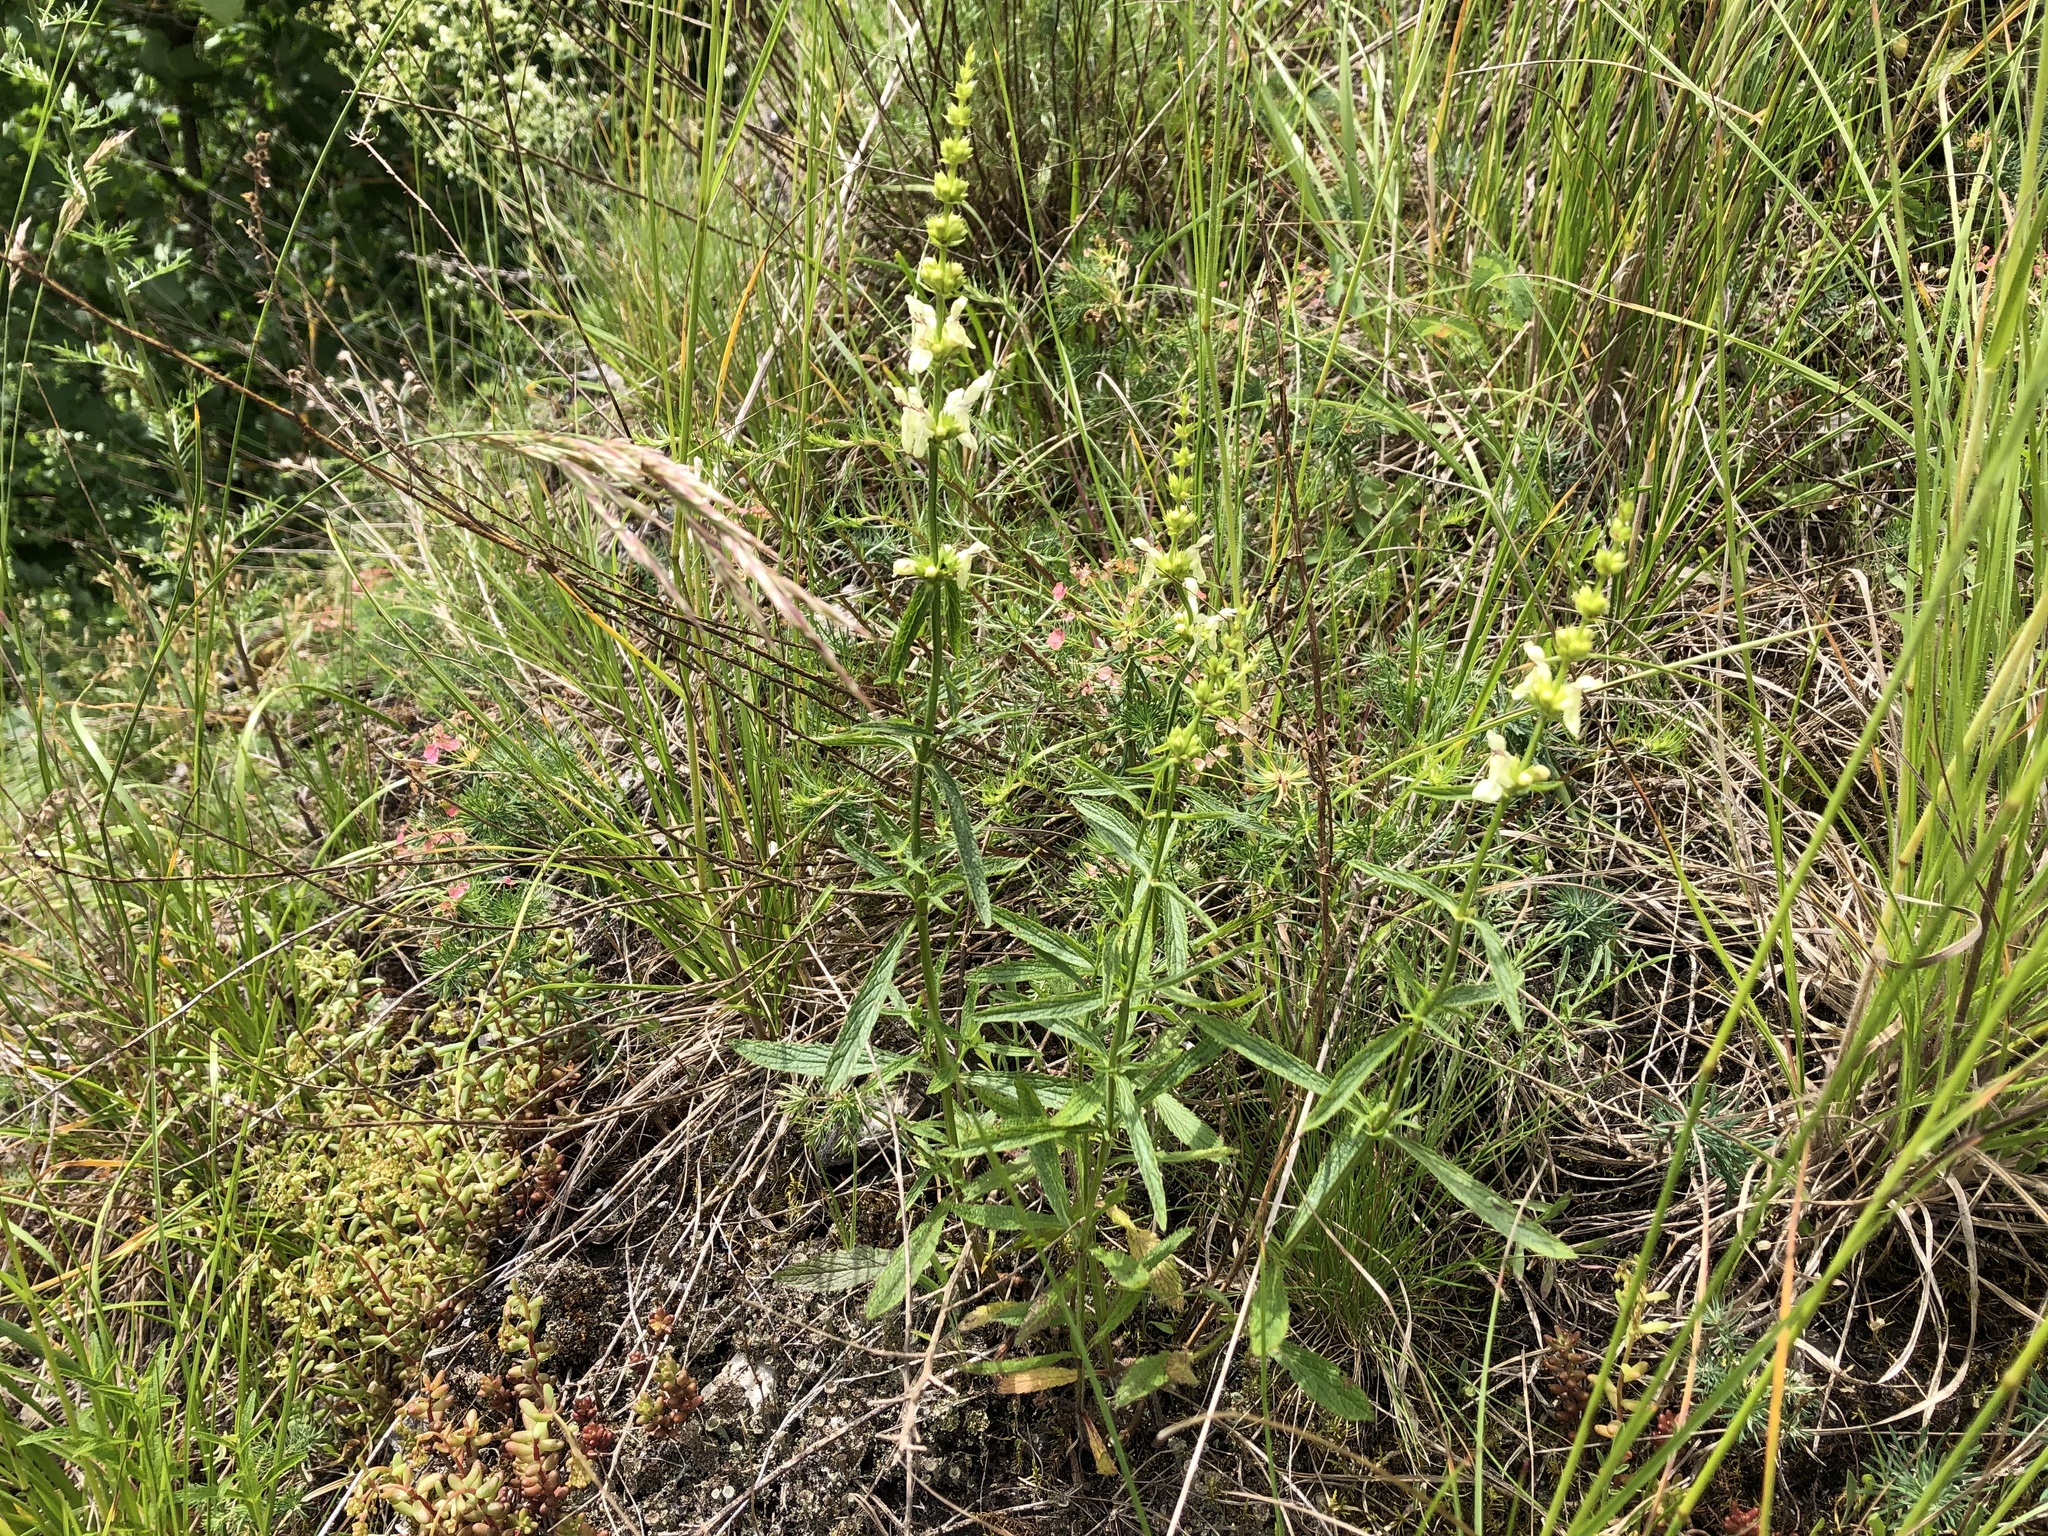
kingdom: Plantae
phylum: Tracheophyta
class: Magnoliopsida
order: Lamiales
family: Lamiaceae
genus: Stachys
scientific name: Stachys recta
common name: Perennial yellow-woundwort
